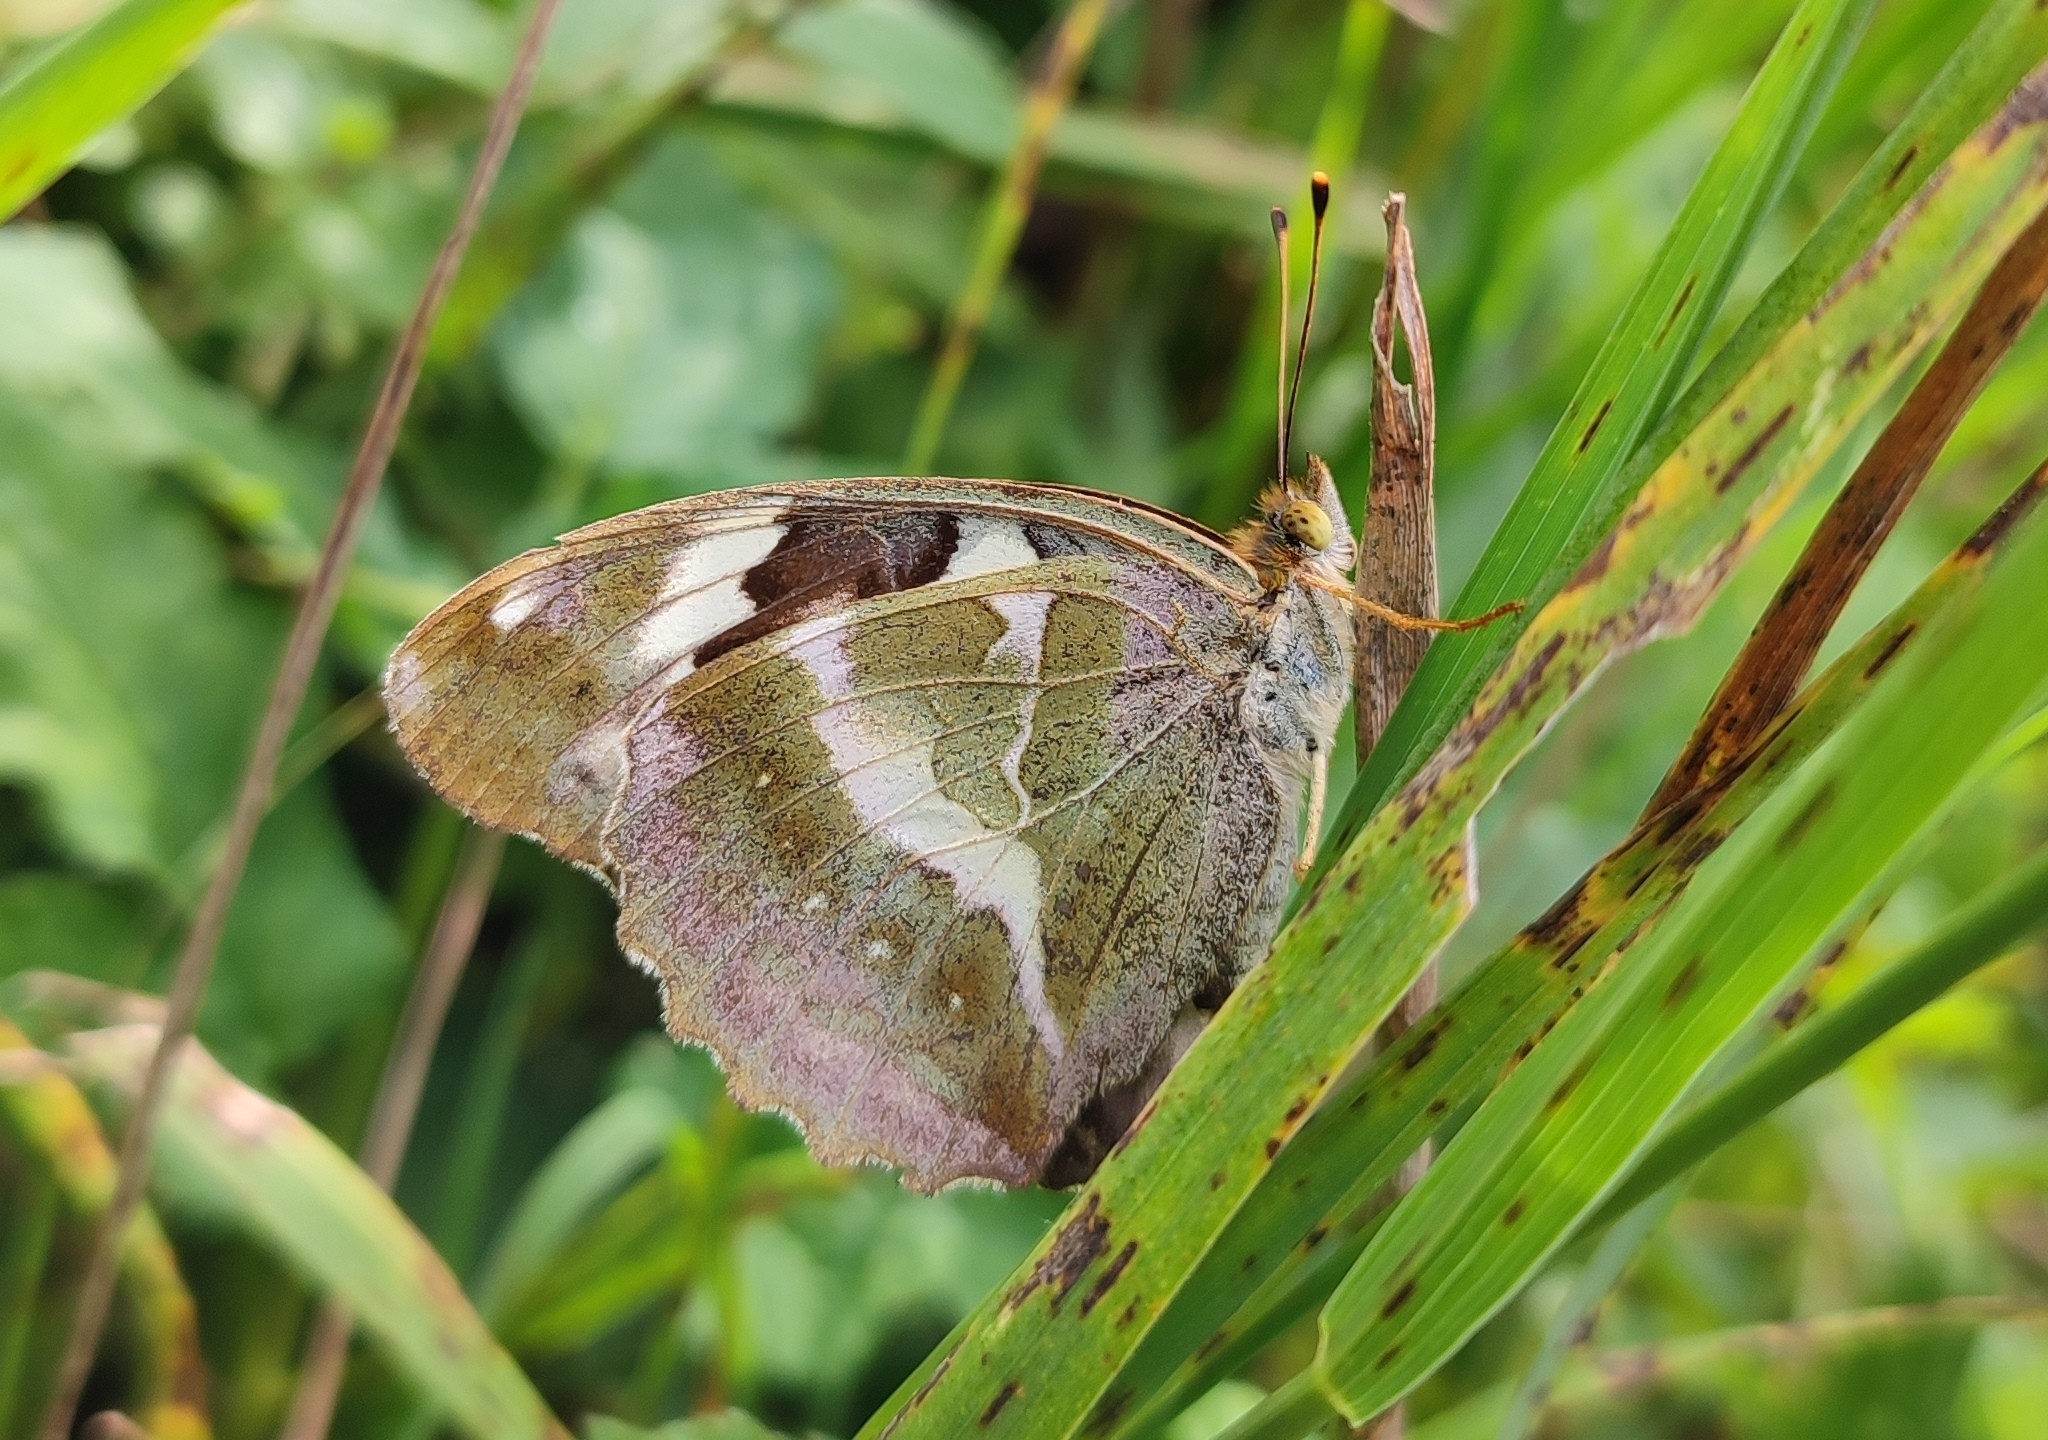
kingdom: Animalia
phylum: Arthropoda
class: Insecta
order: Lepidoptera
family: Nymphalidae
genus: Damora
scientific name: Damora sagana
